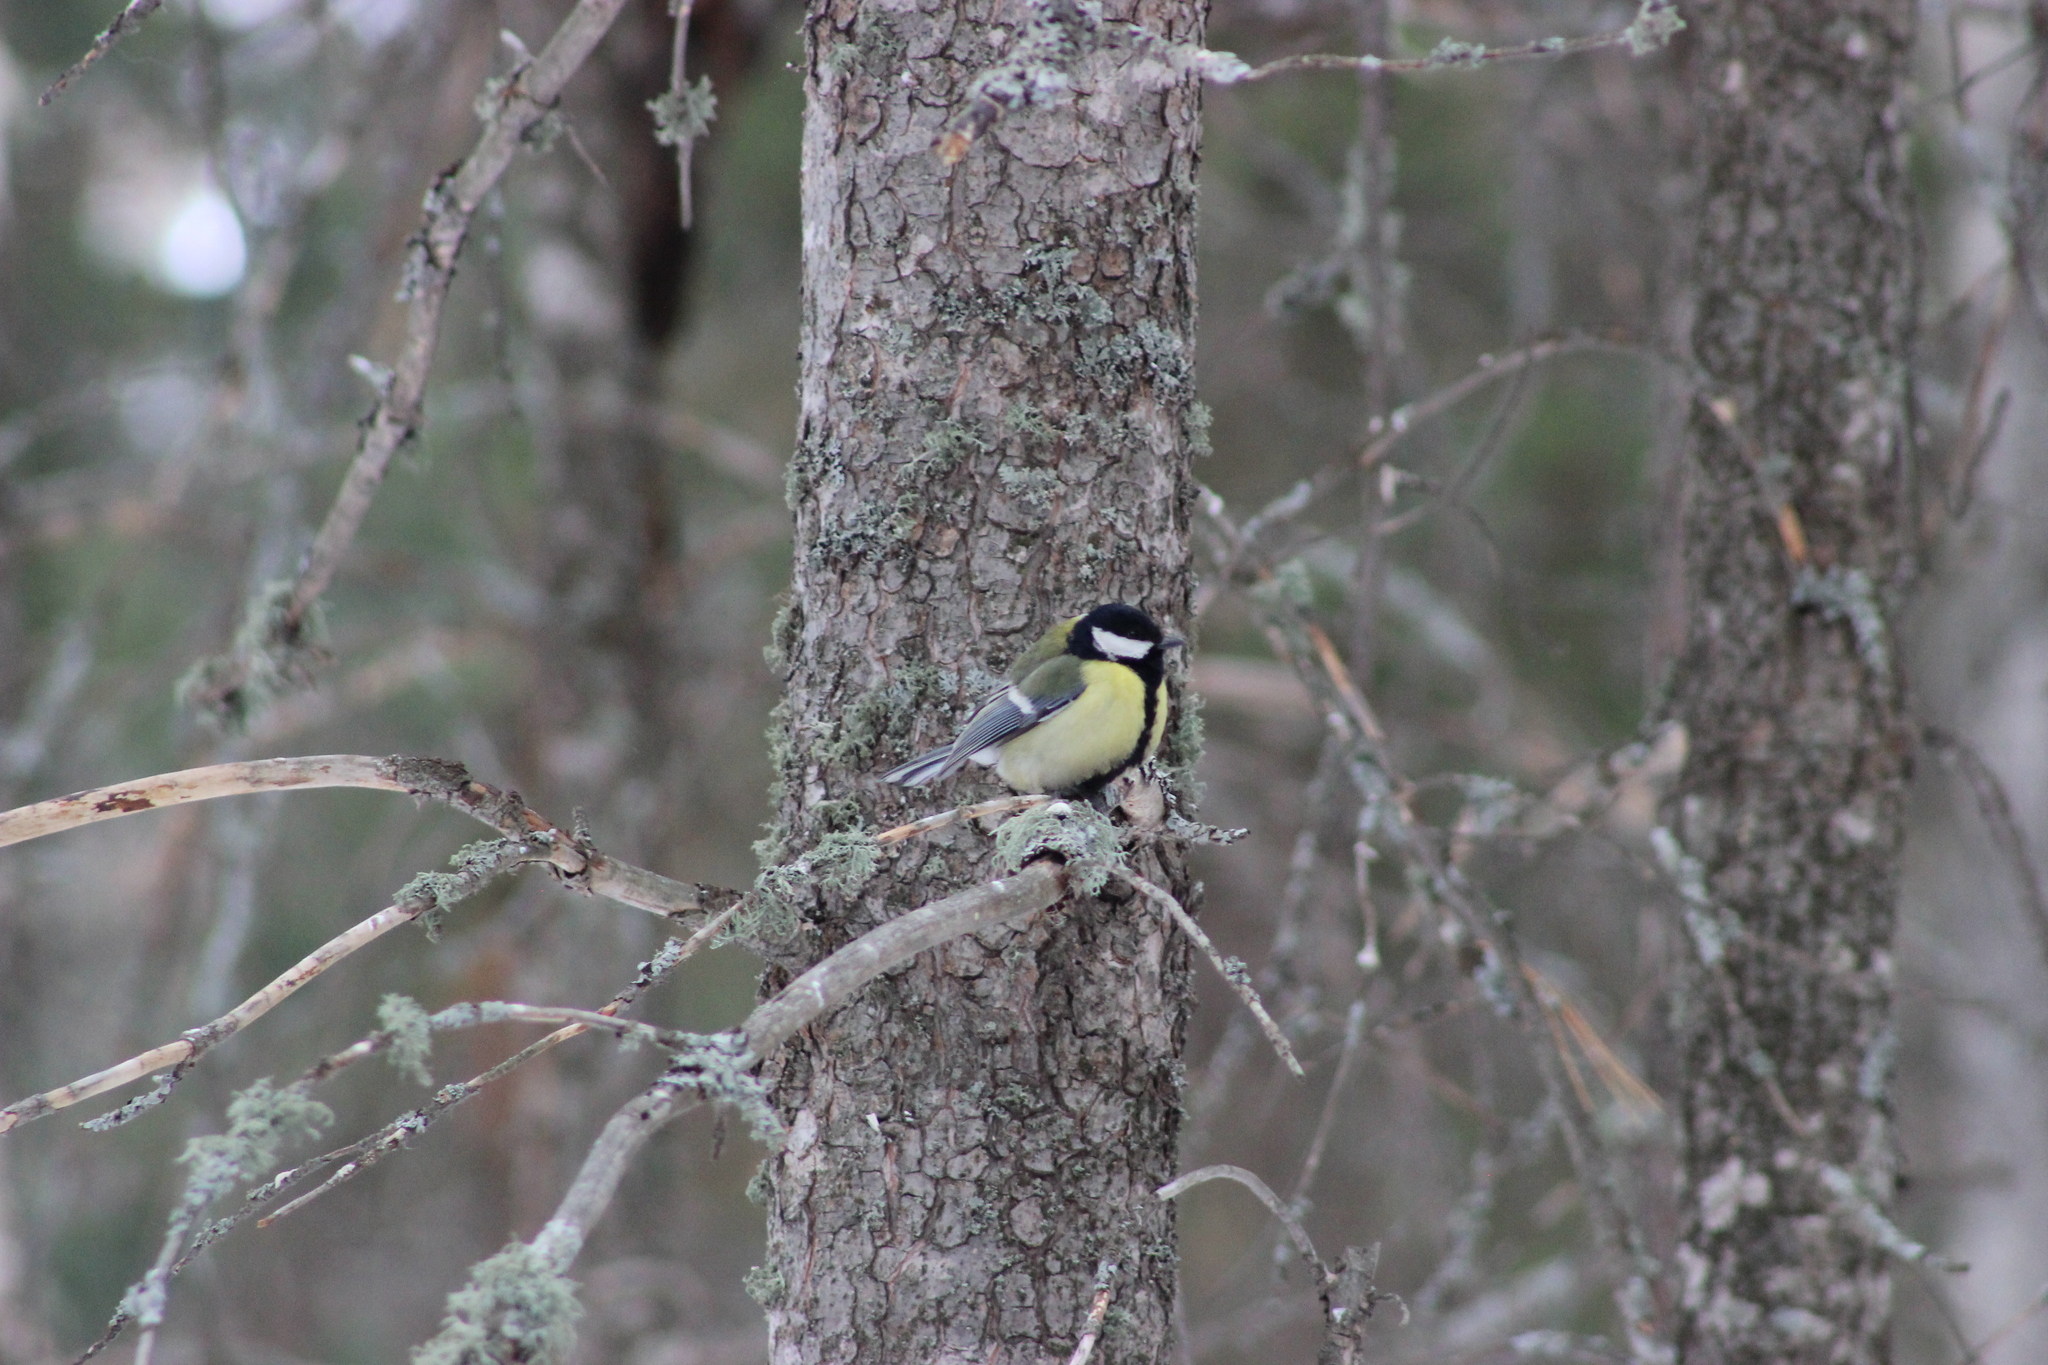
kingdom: Animalia
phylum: Chordata
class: Aves
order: Passeriformes
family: Paridae
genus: Parus
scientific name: Parus major
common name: Great tit
